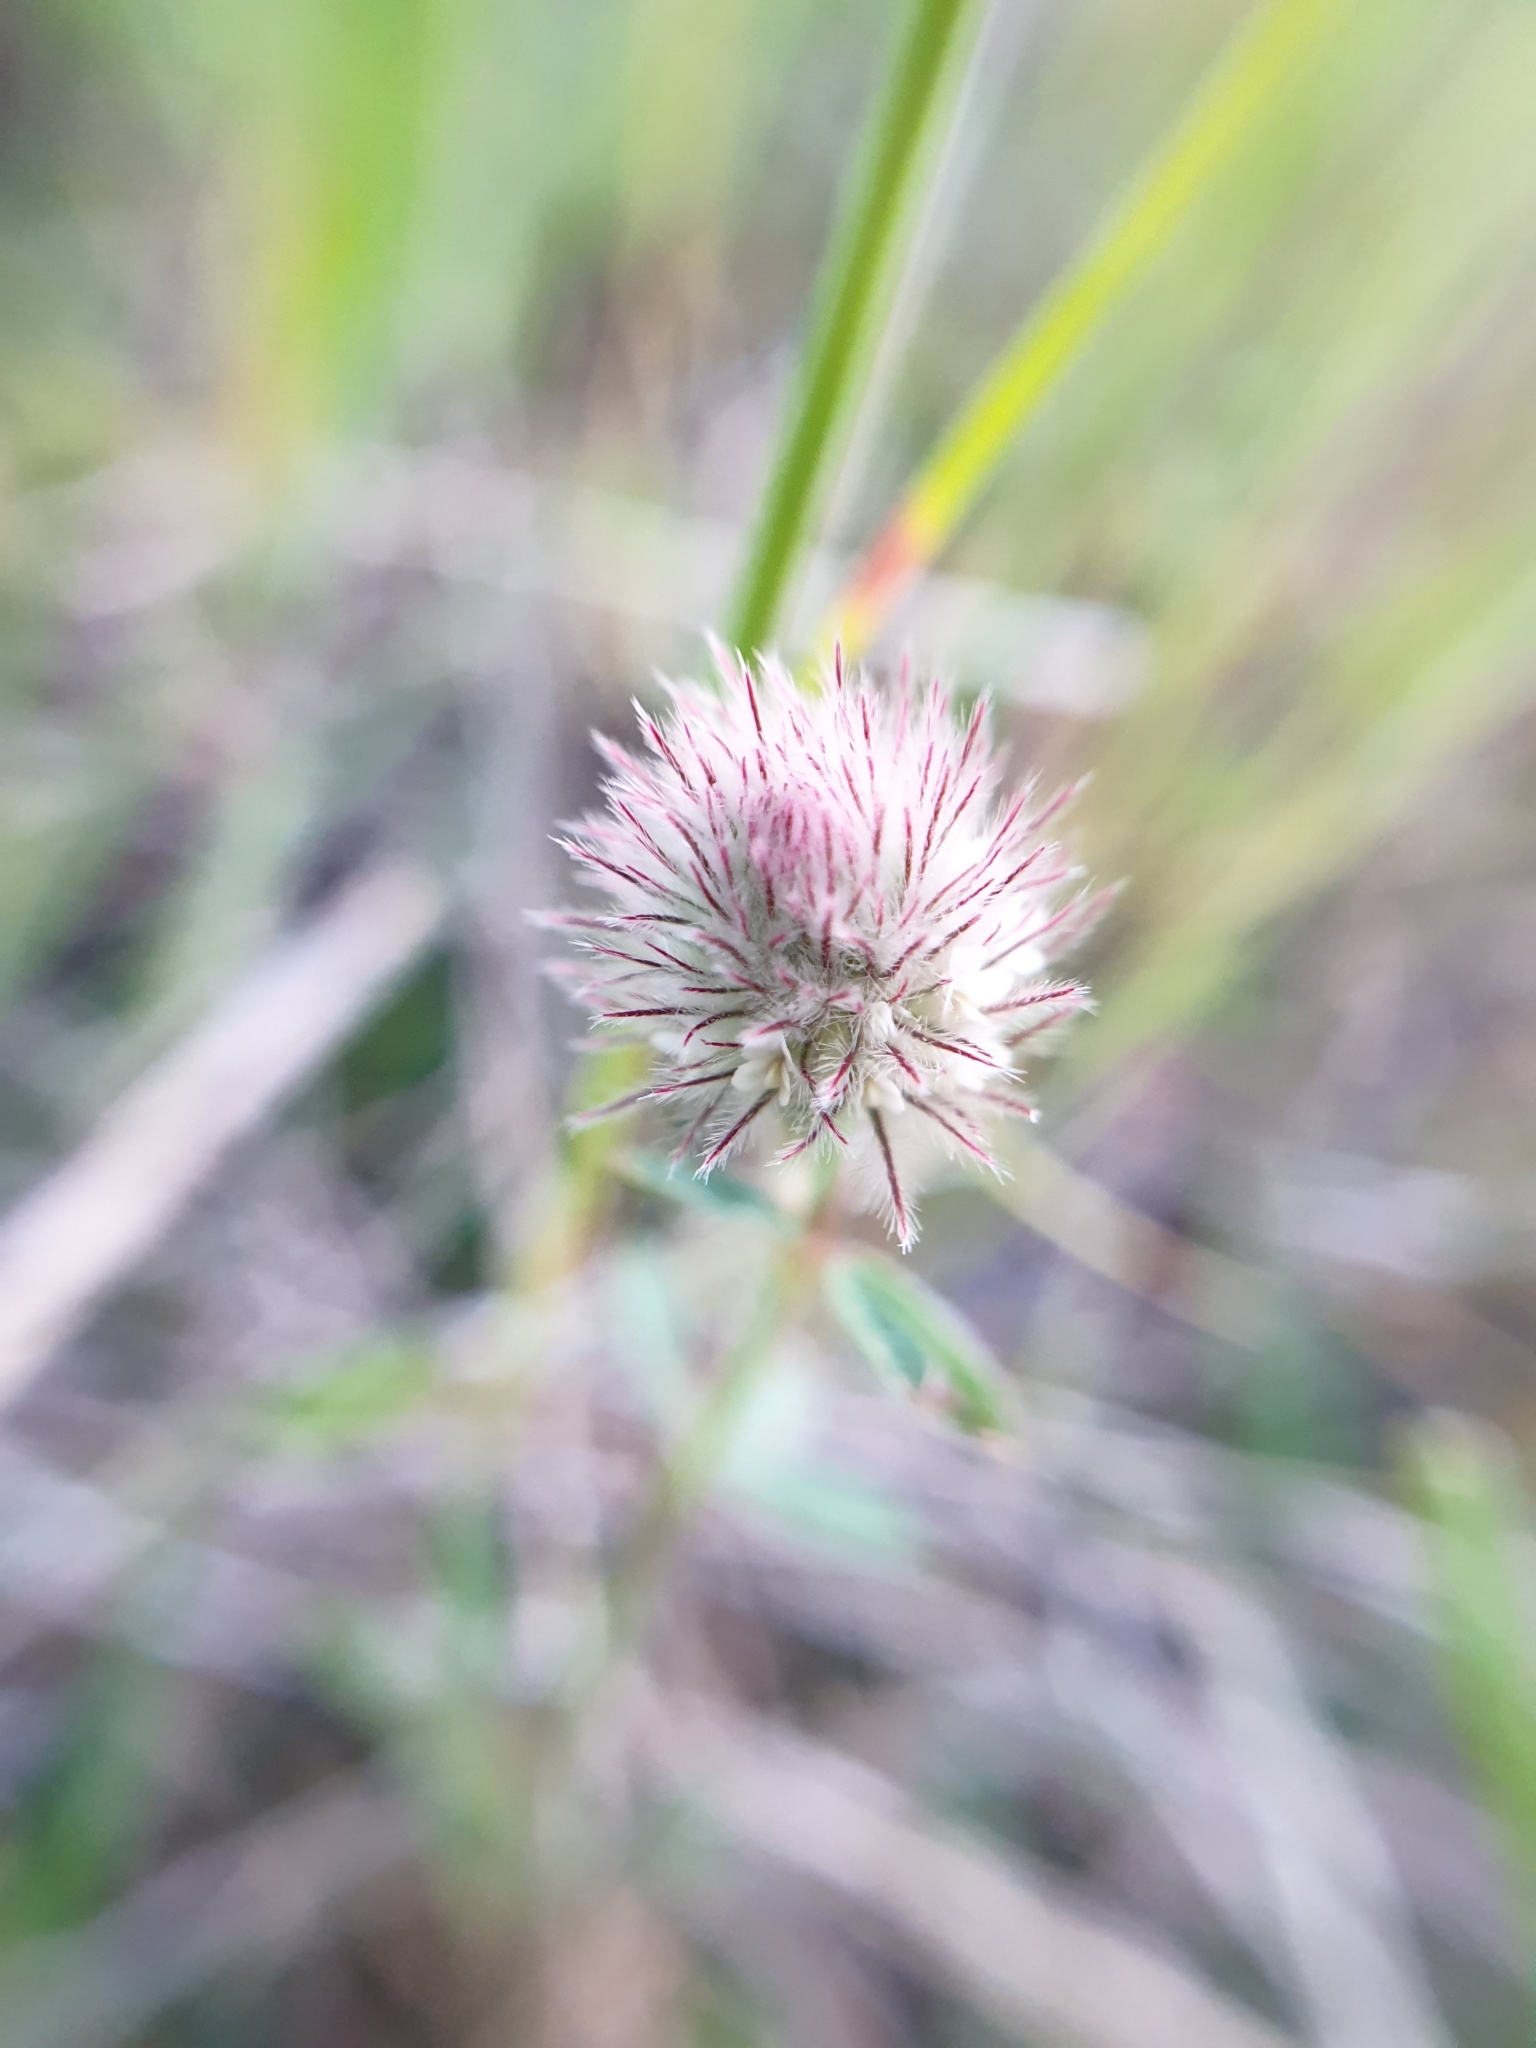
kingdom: Plantae
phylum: Tracheophyta
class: Magnoliopsida
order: Fabales
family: Fabaceae
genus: Trifolium
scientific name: Trifolium arvense
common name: Hare's-foot clover
